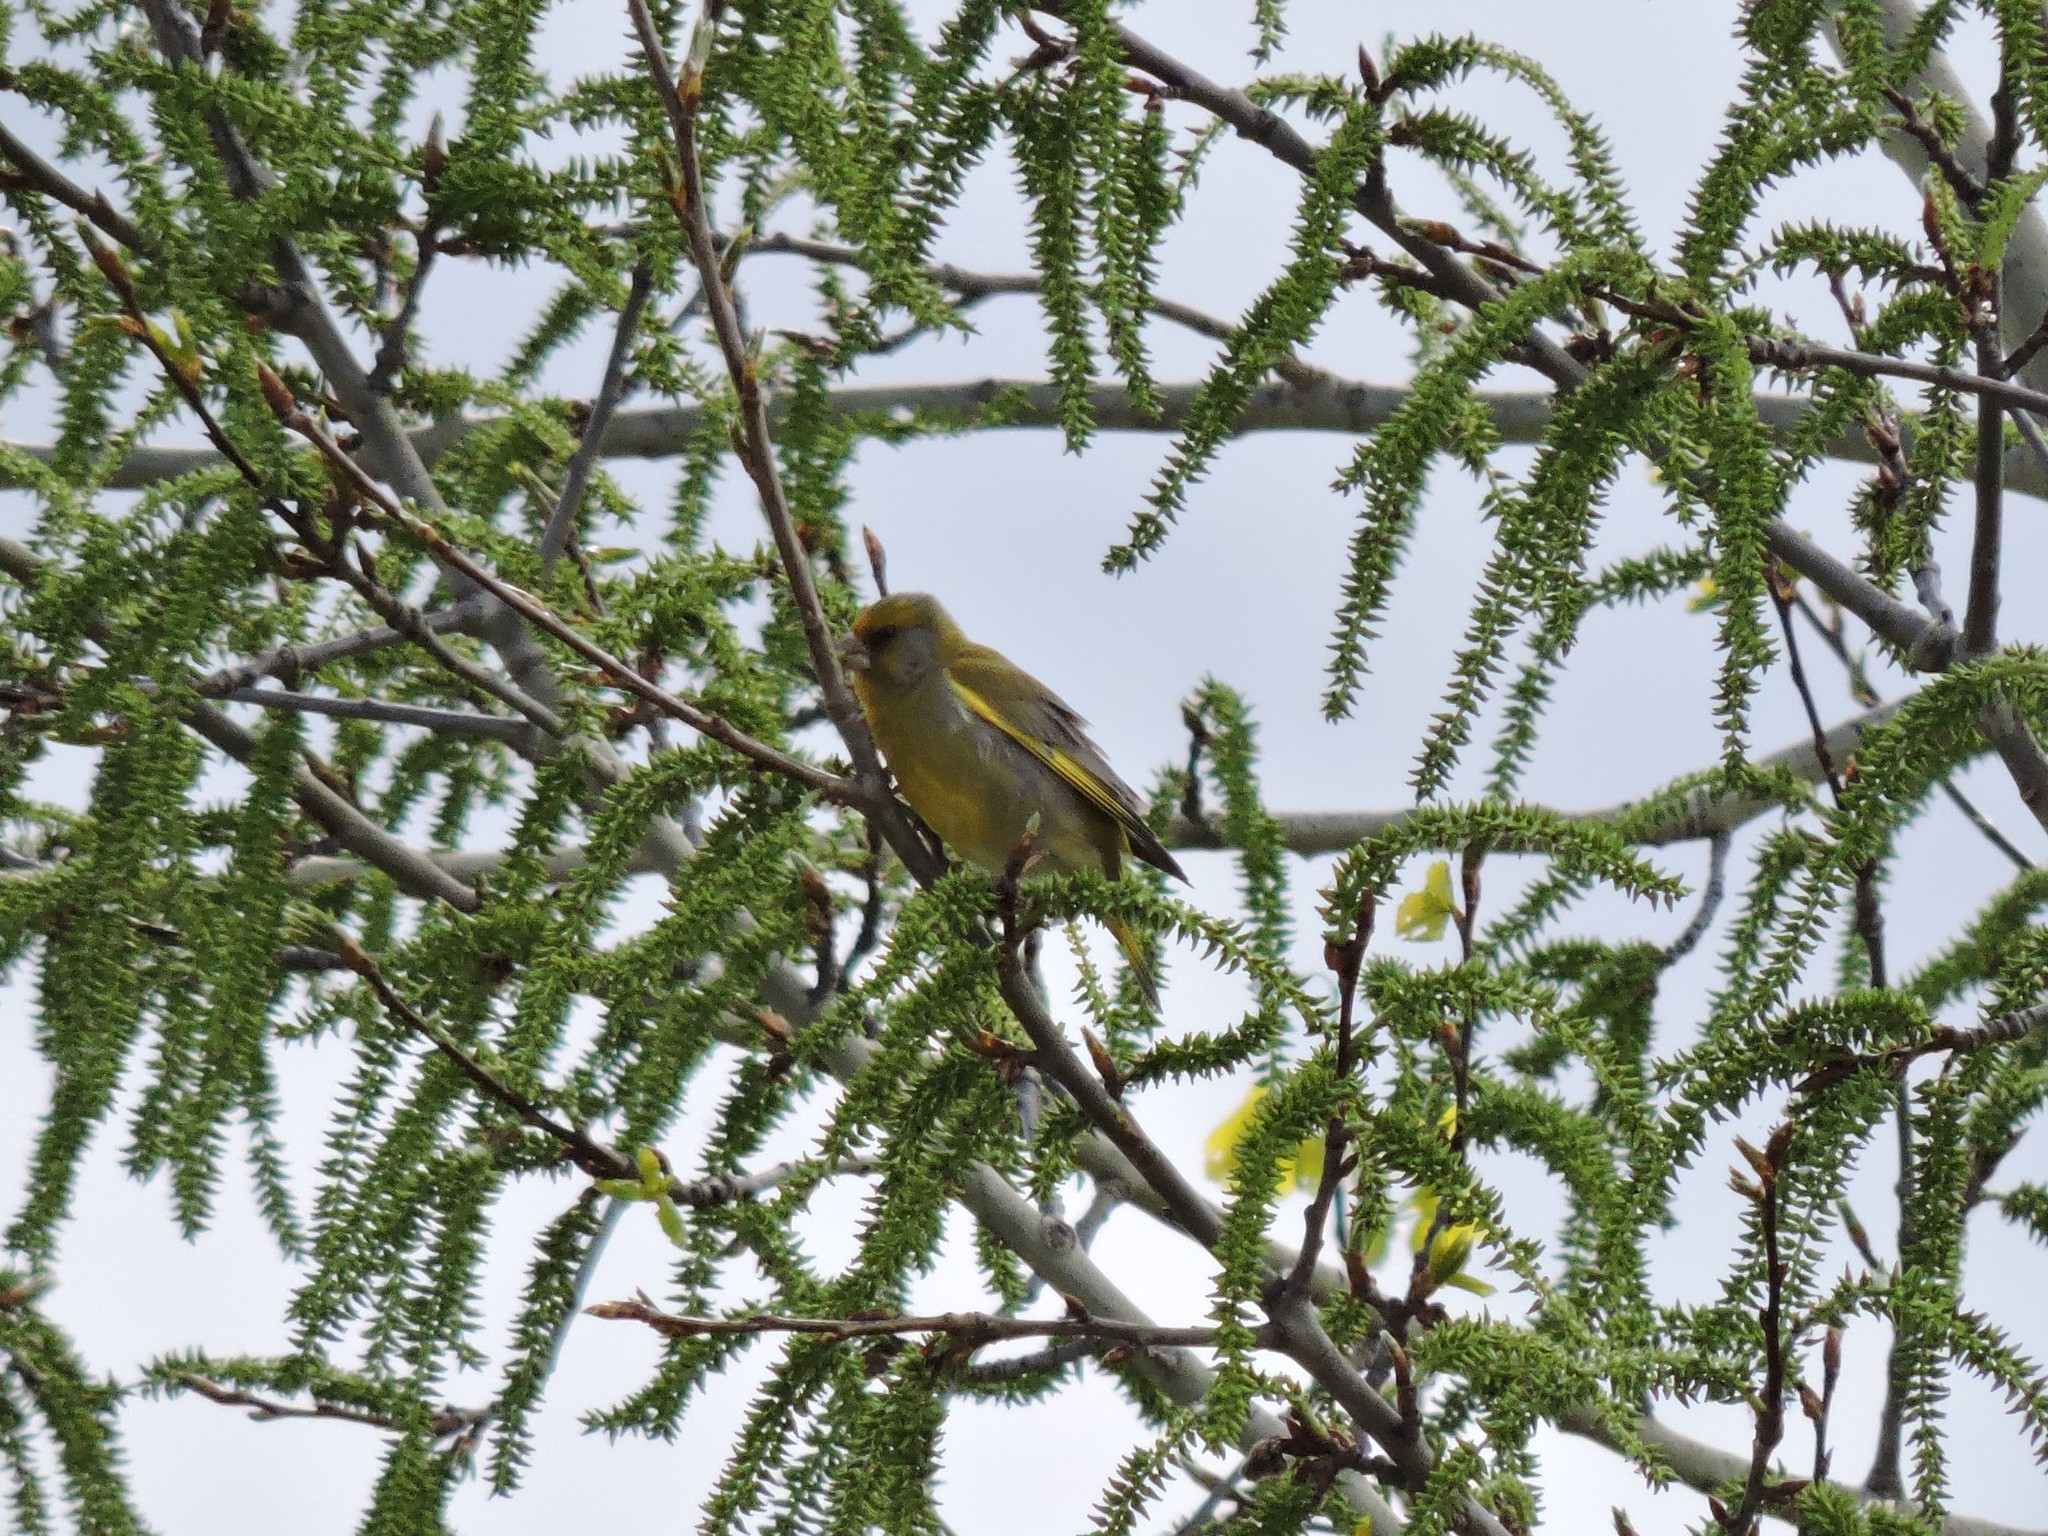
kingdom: Plantae
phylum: Tracheophyta
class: Liliopsida
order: Poales
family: Poaceae
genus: Chloris
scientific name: Chloris chloris
